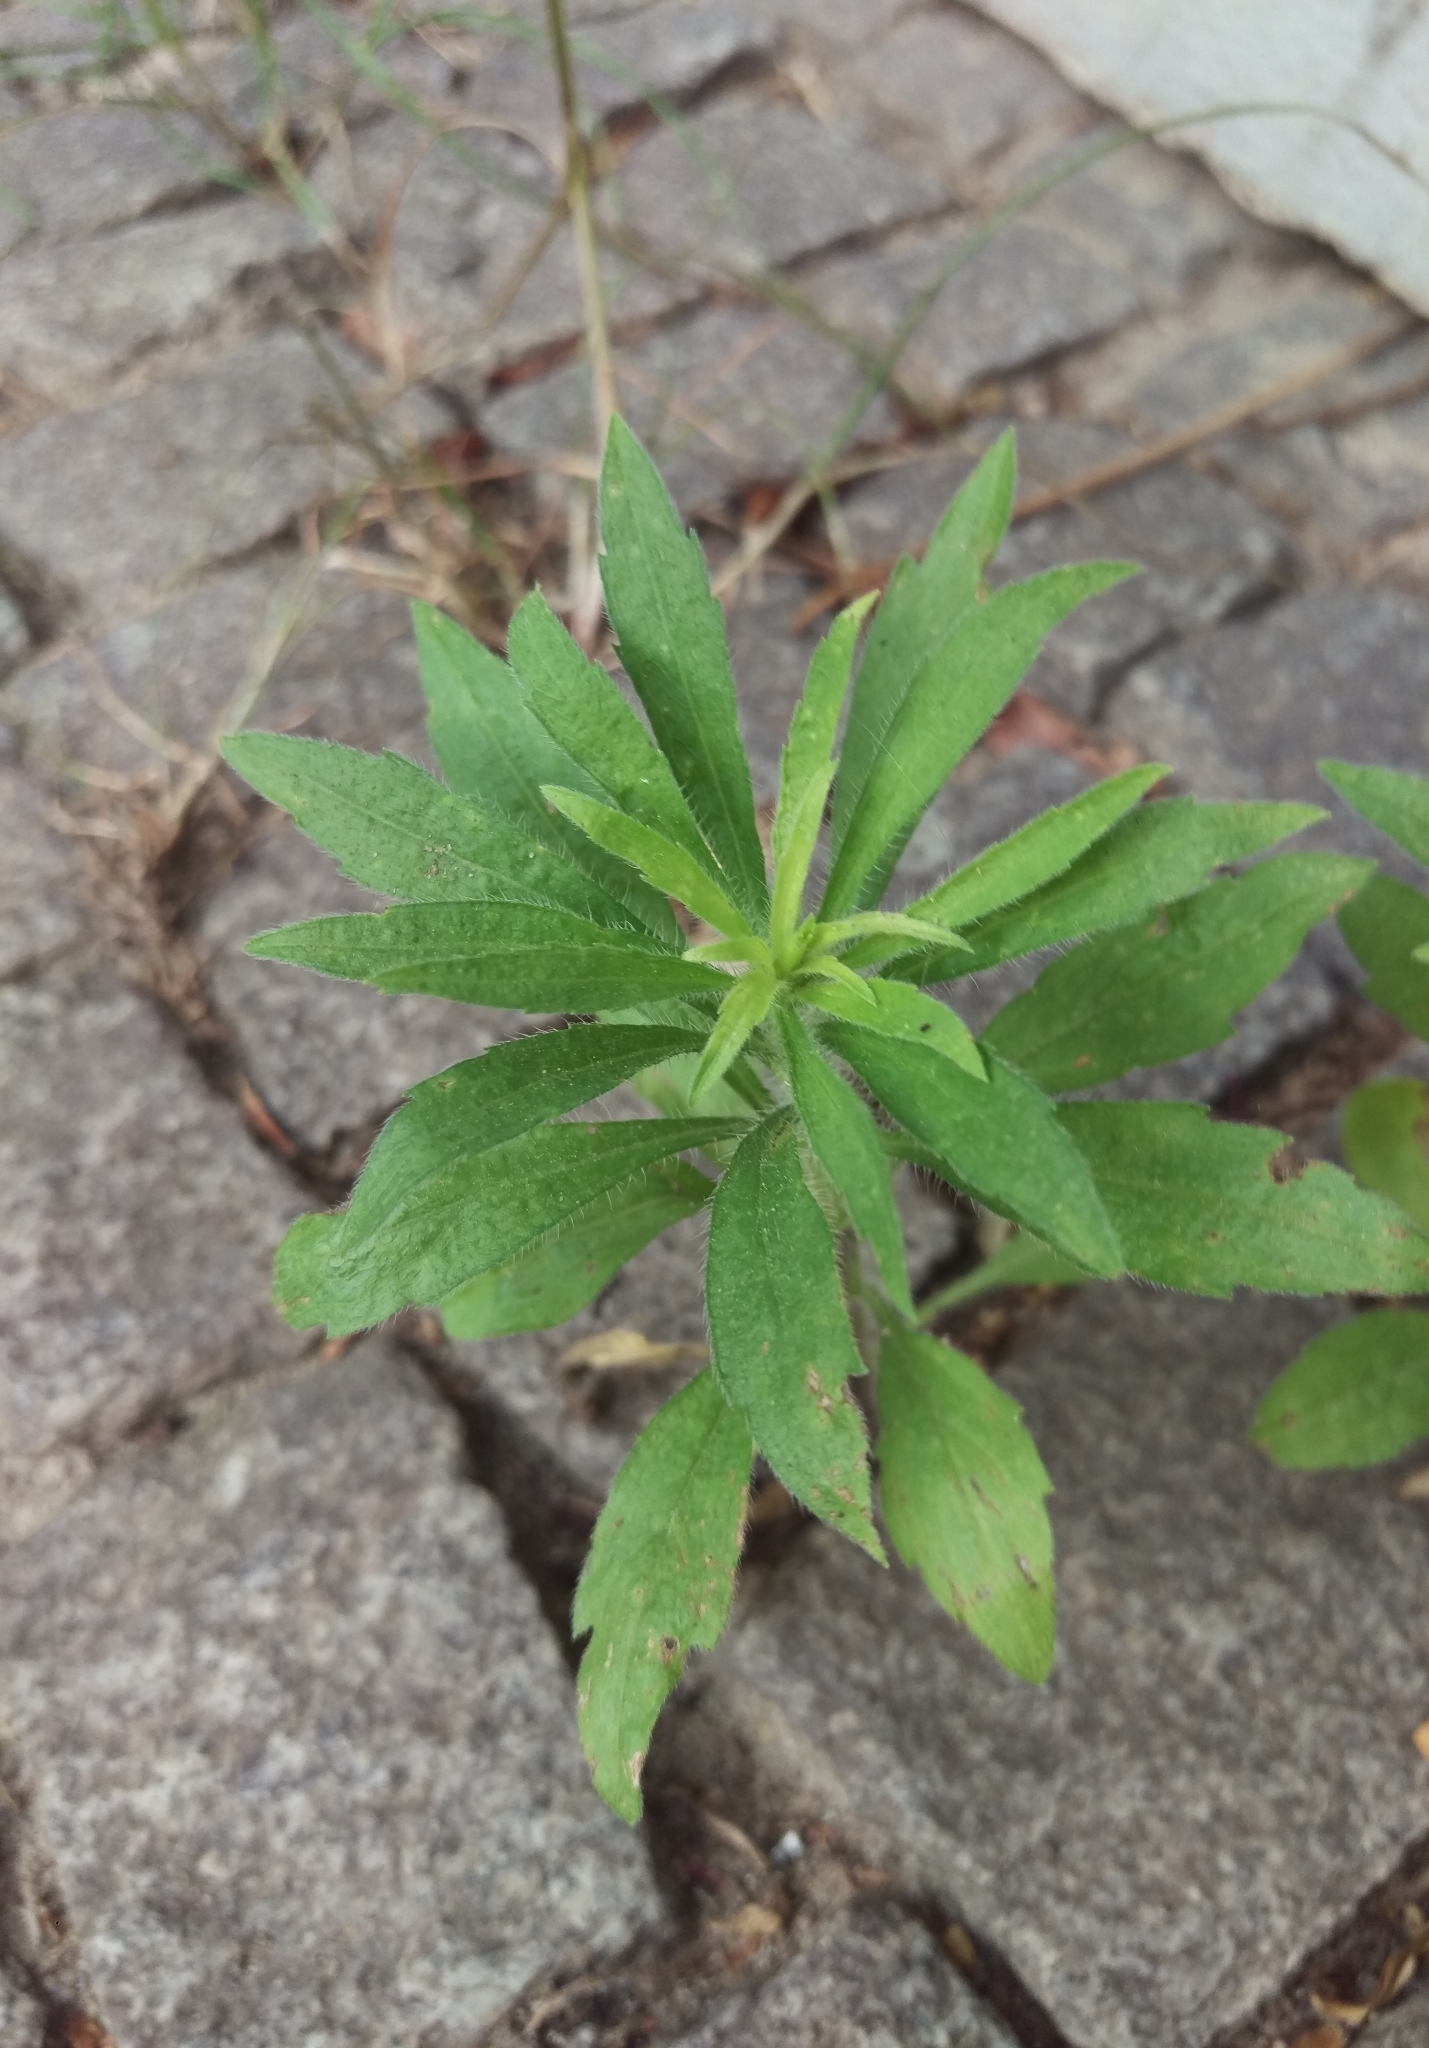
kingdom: Plantae
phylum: Tracheophyta
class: Magnoliopsida
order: Asterales
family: Asteraceae
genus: Erigeron
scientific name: Erigeron canadensis
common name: Canadian fleabane
